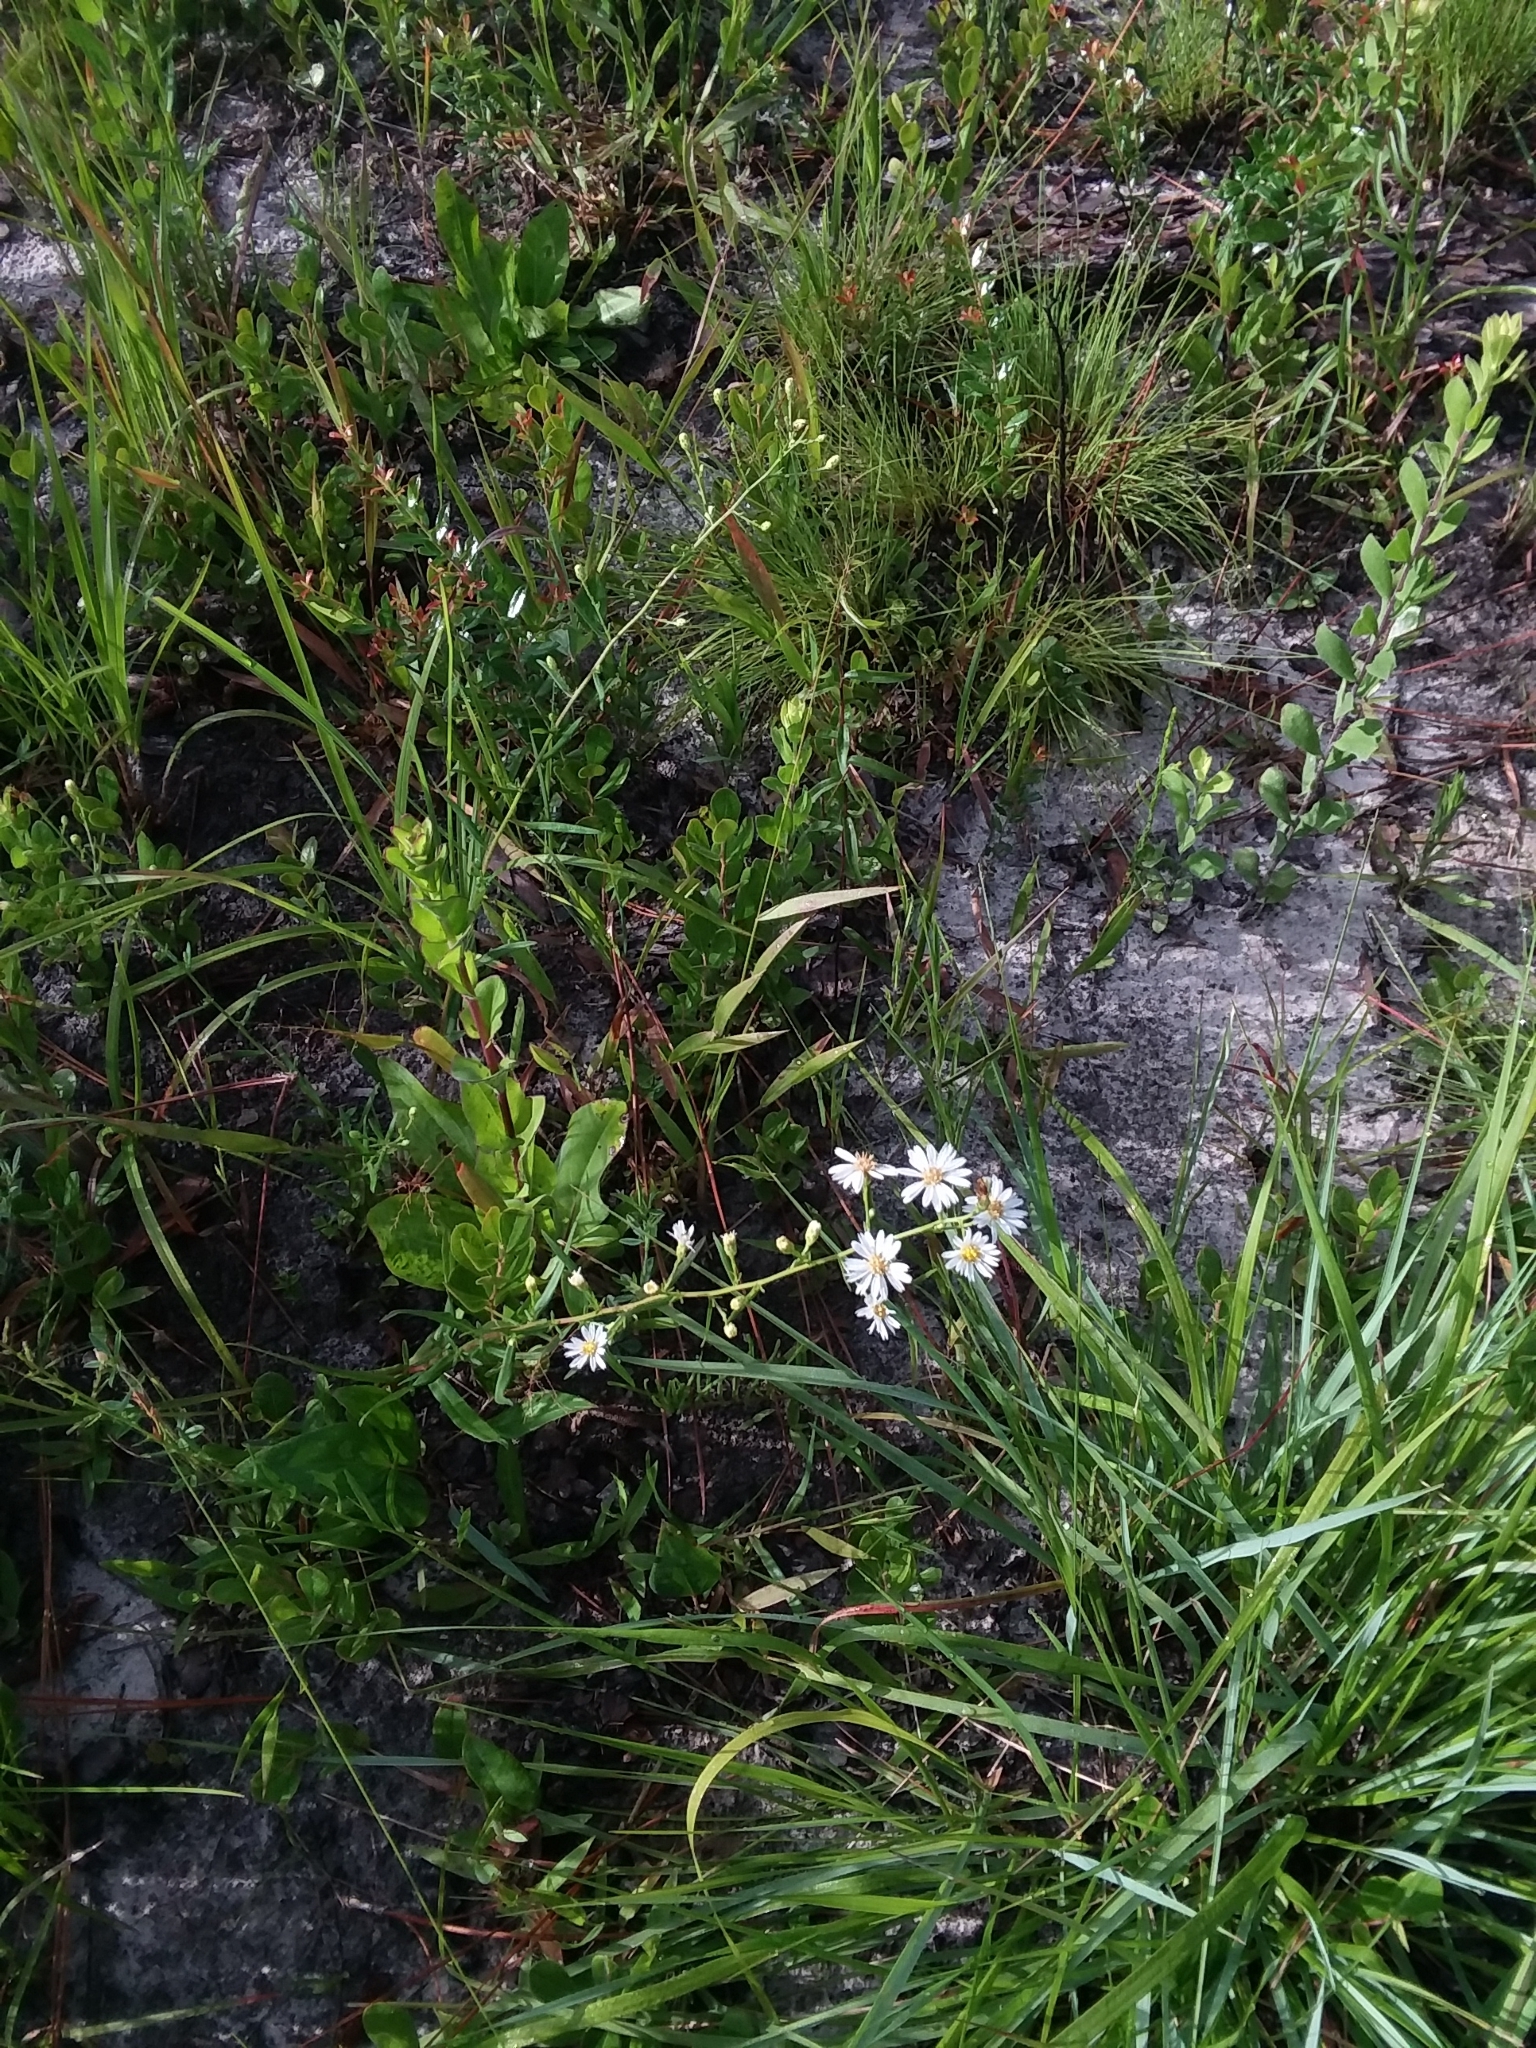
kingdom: Plantae
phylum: Tracheophyta
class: Magnoliopsida
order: Asterales
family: Asteraceae
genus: Symphyotrichum
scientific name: Symphyotrichum dumosum
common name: Bushy aster
